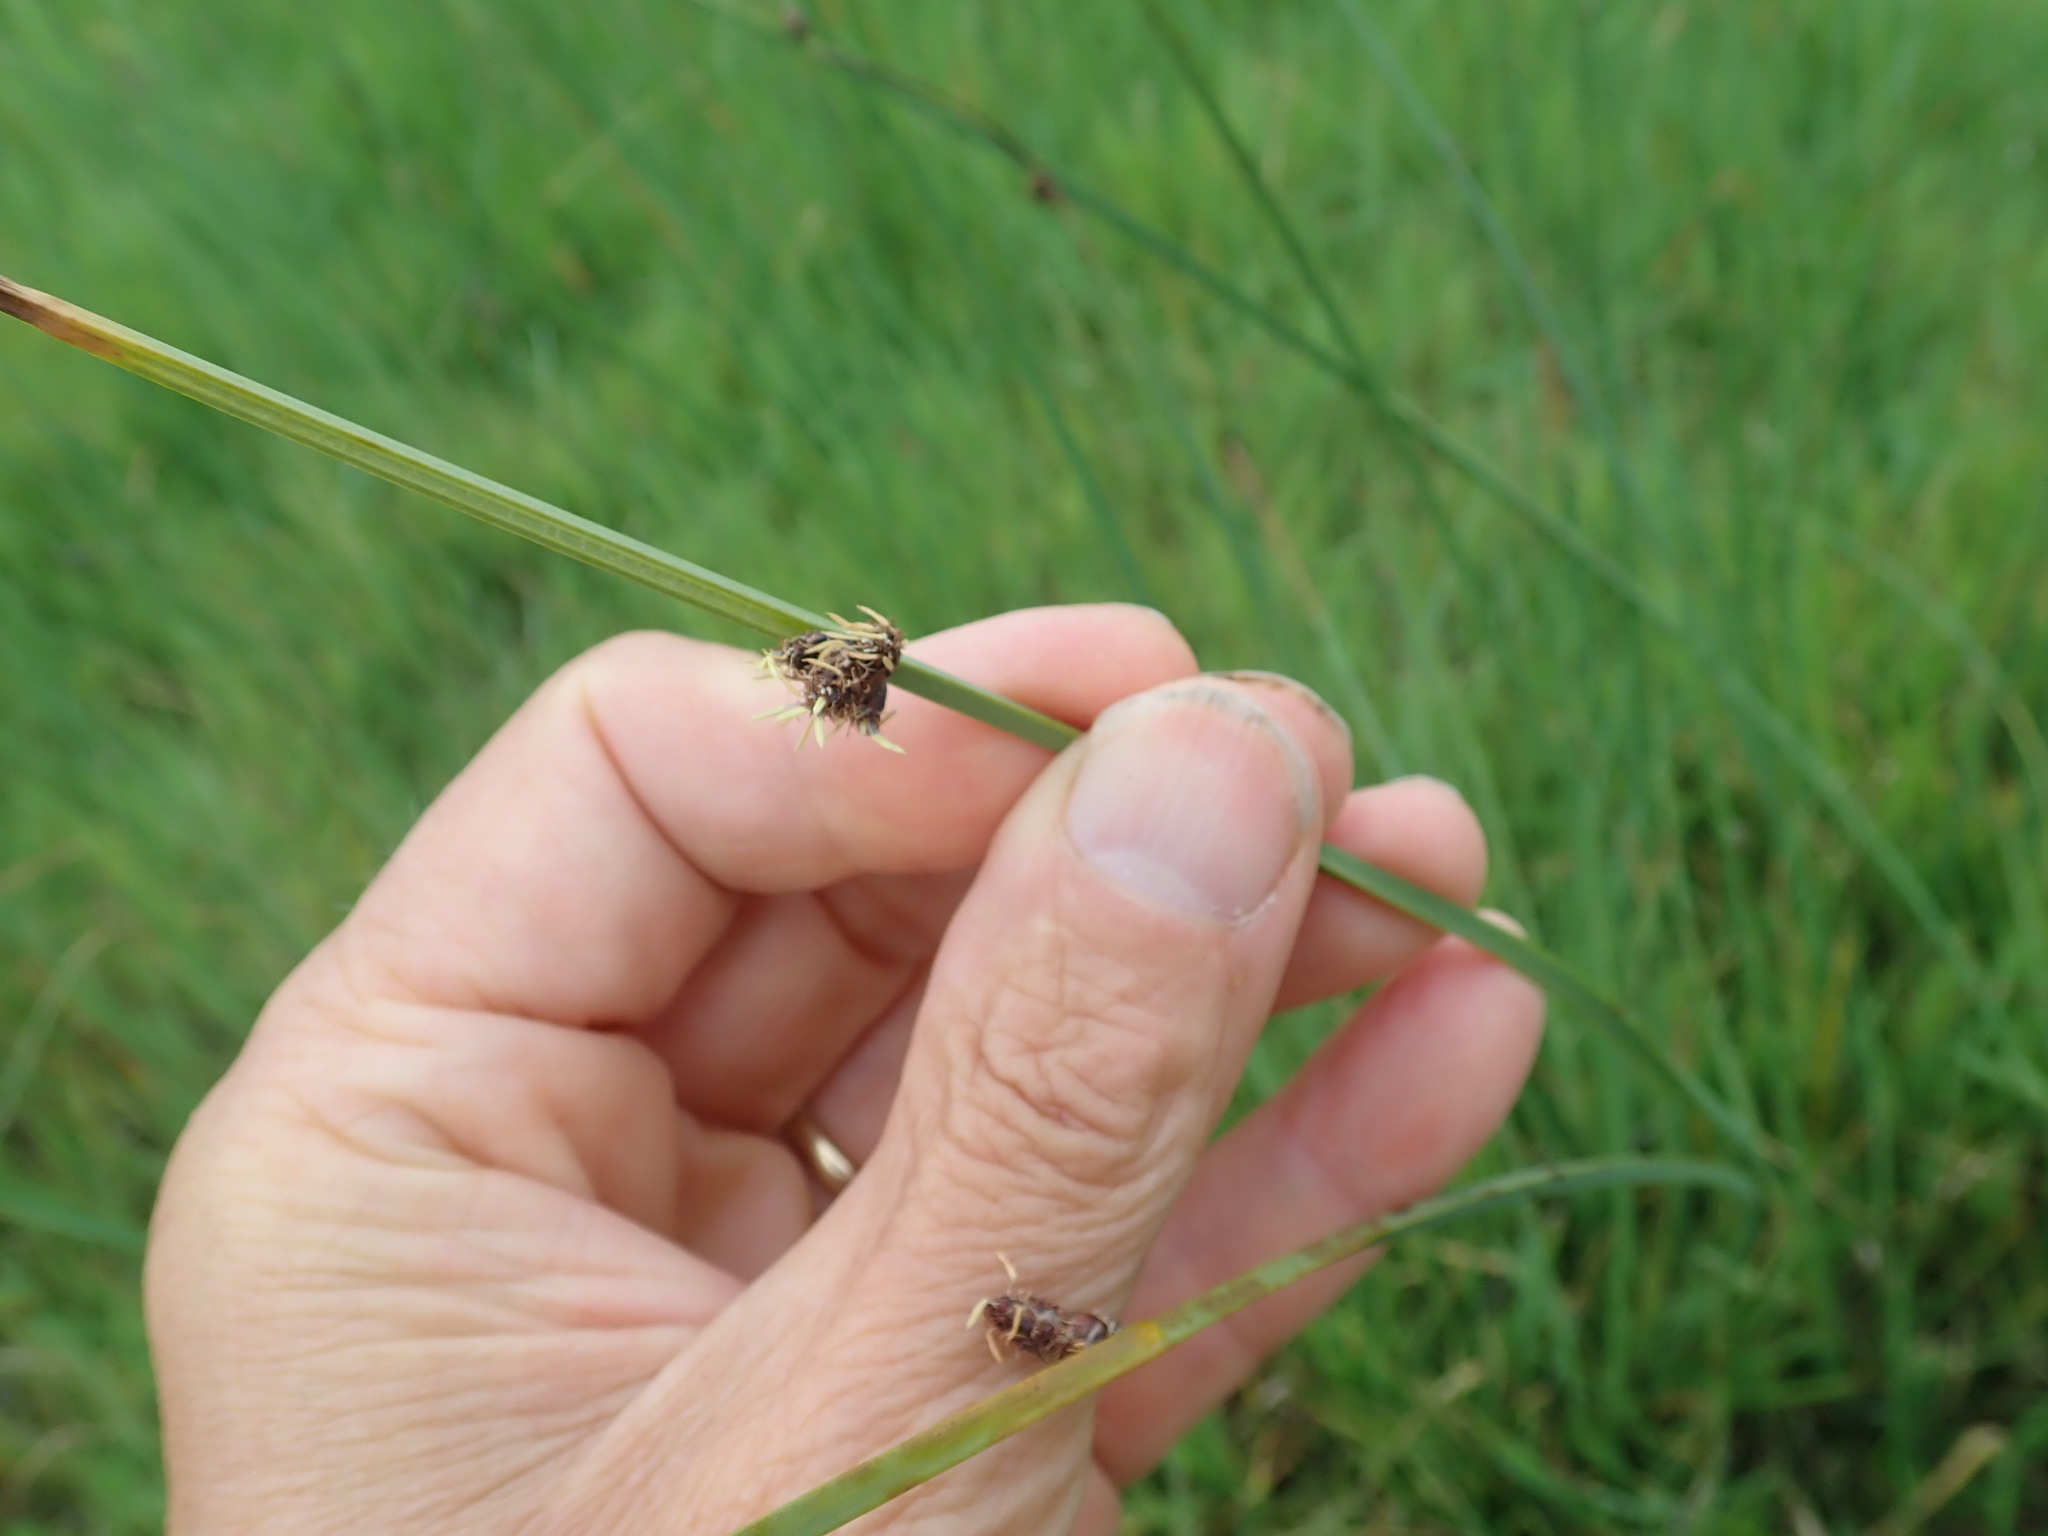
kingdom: Plantae
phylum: Tracheophyta
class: Liliopsida
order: Poales
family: Cyperaceae
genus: Schoenoplectus
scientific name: Schoenoplectus pungens
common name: Sharp club-rush
